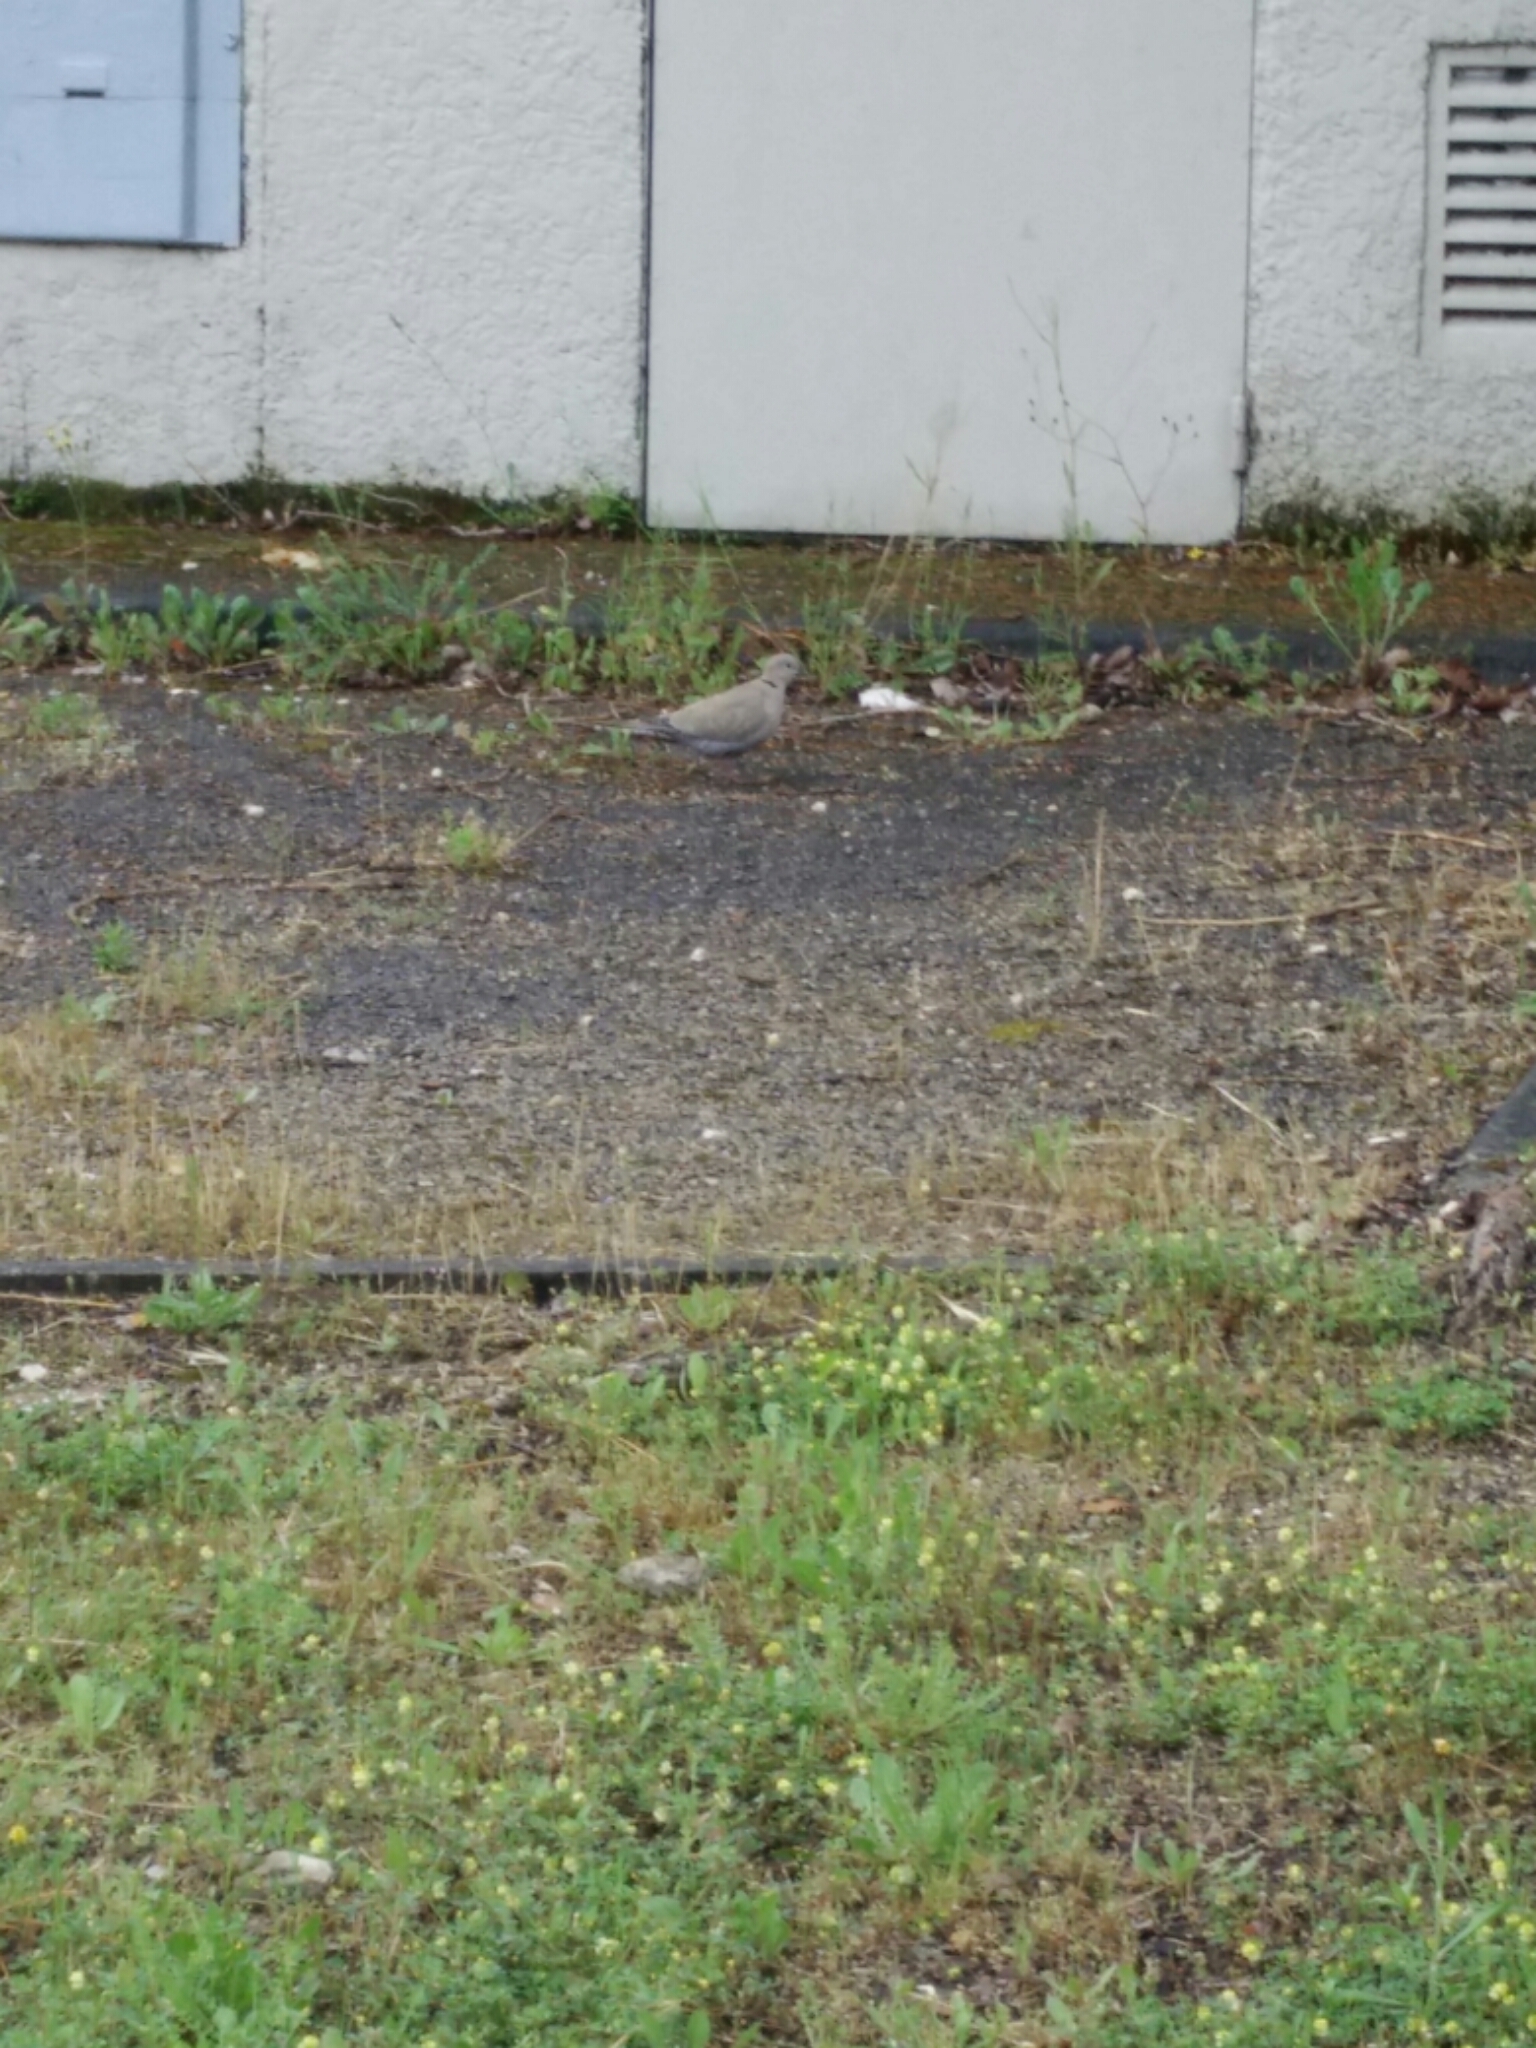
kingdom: Animalia
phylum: Chordata
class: Aves
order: Columbiformes
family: Columbidae
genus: Streptopelia
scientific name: Streptopelia decaocto
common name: Eurasian collared dove
